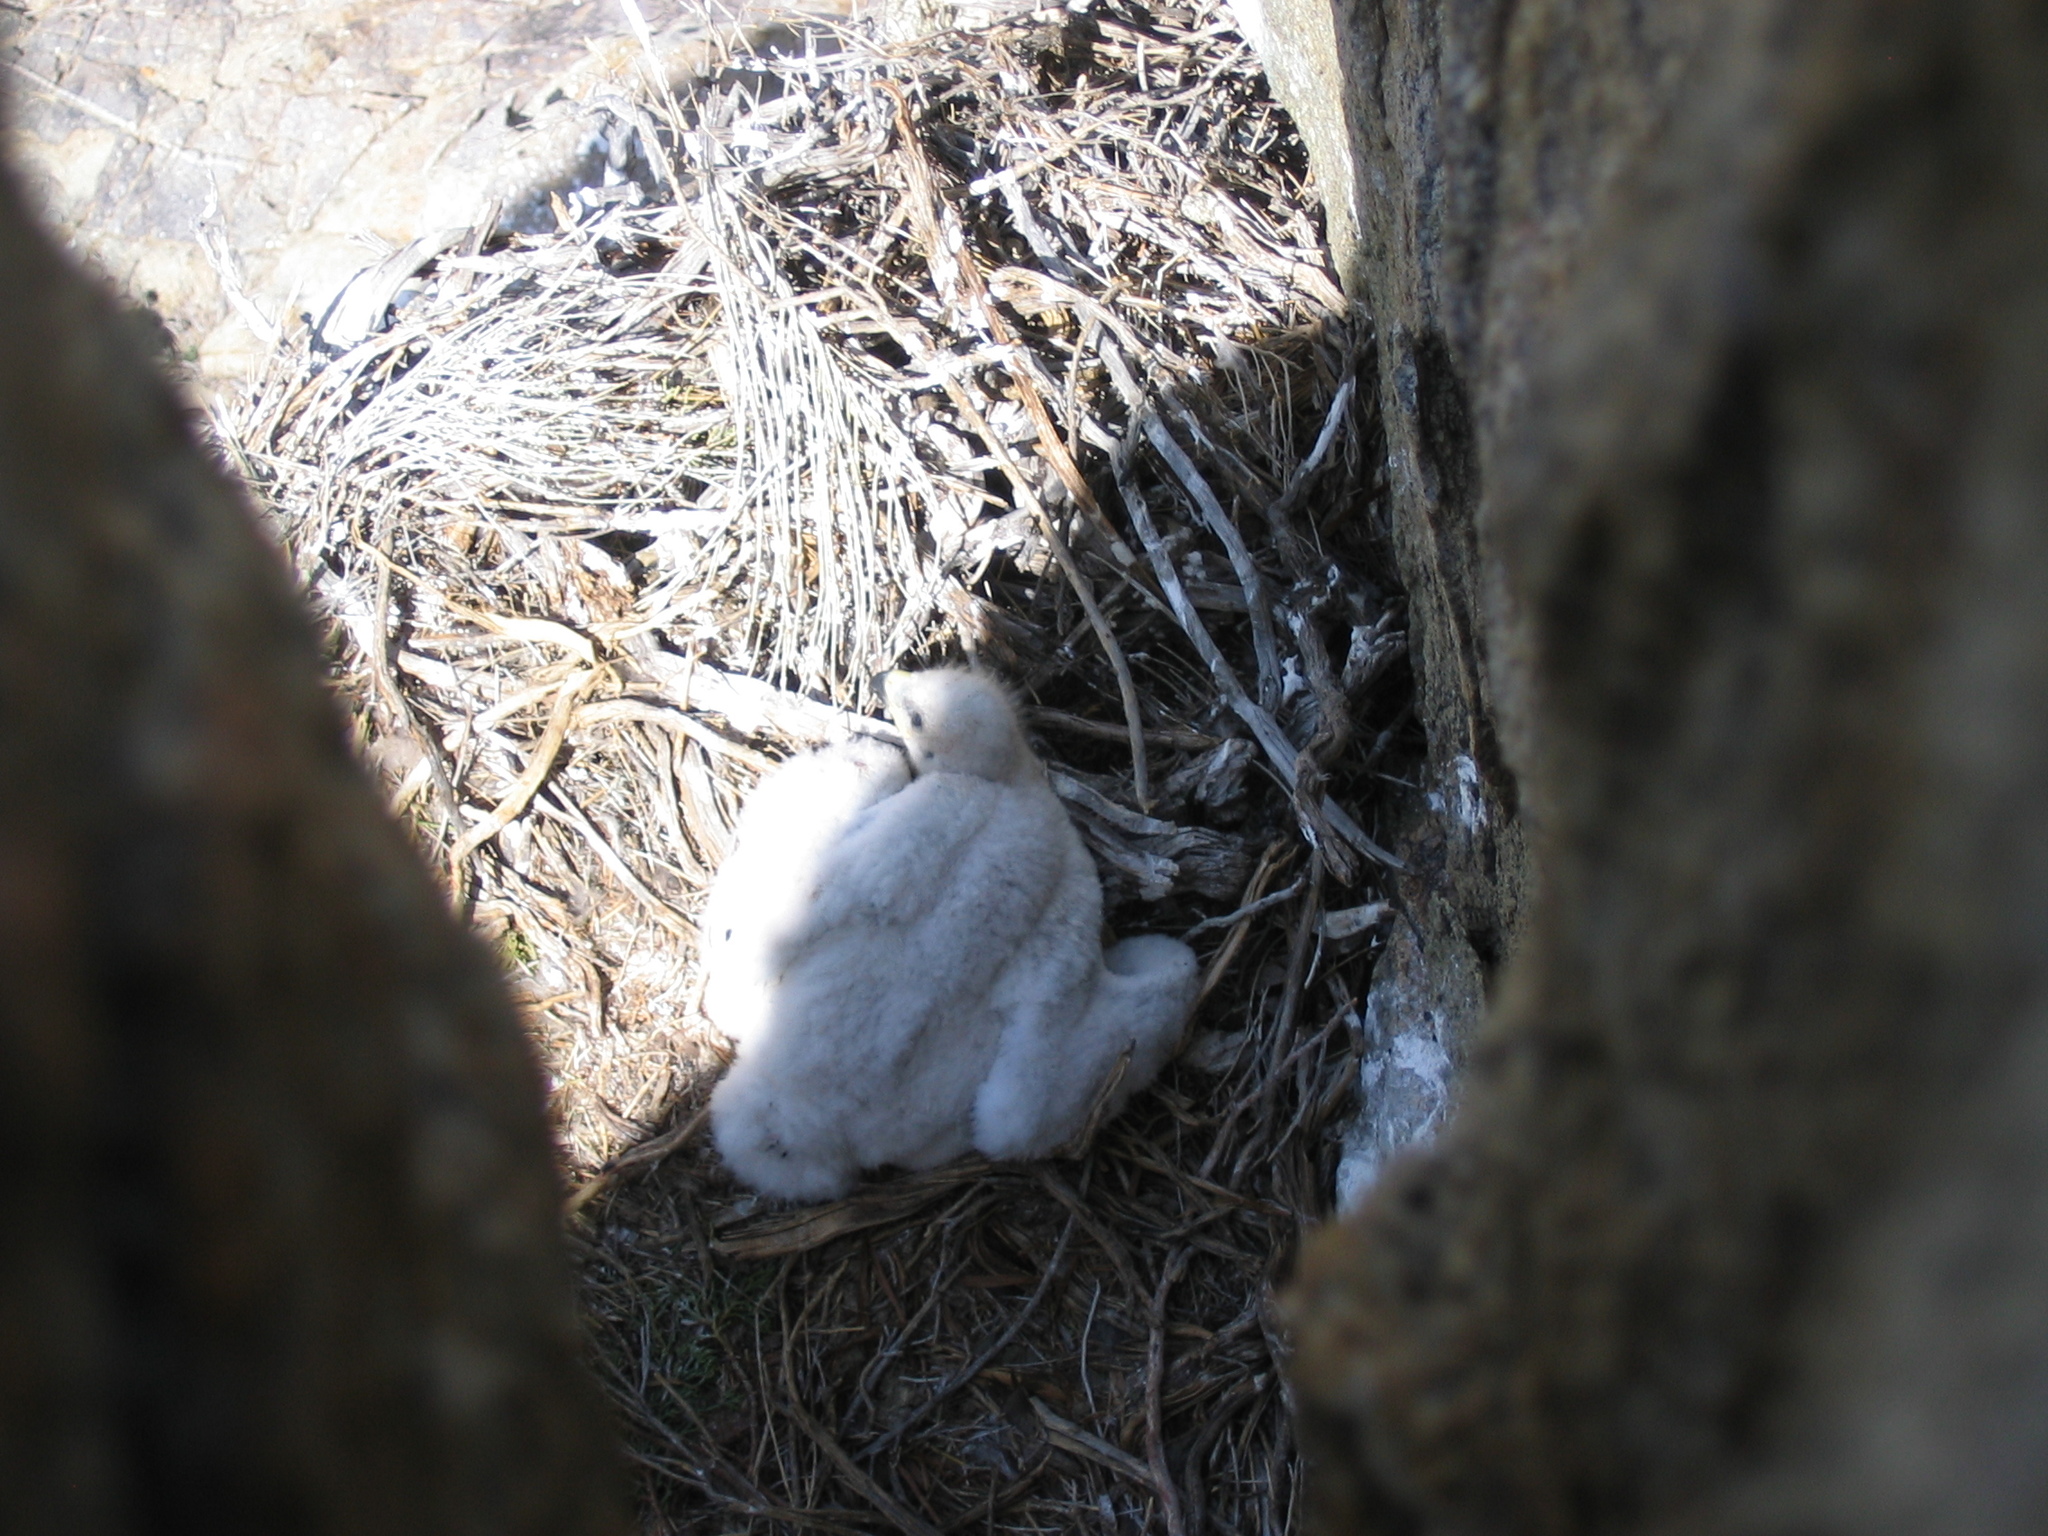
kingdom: Animalia
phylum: Chordata
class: Aves
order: Accipitriformes
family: Accipitridae
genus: Aquila
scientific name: Aquila chrysaetos
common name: Golden eagle
